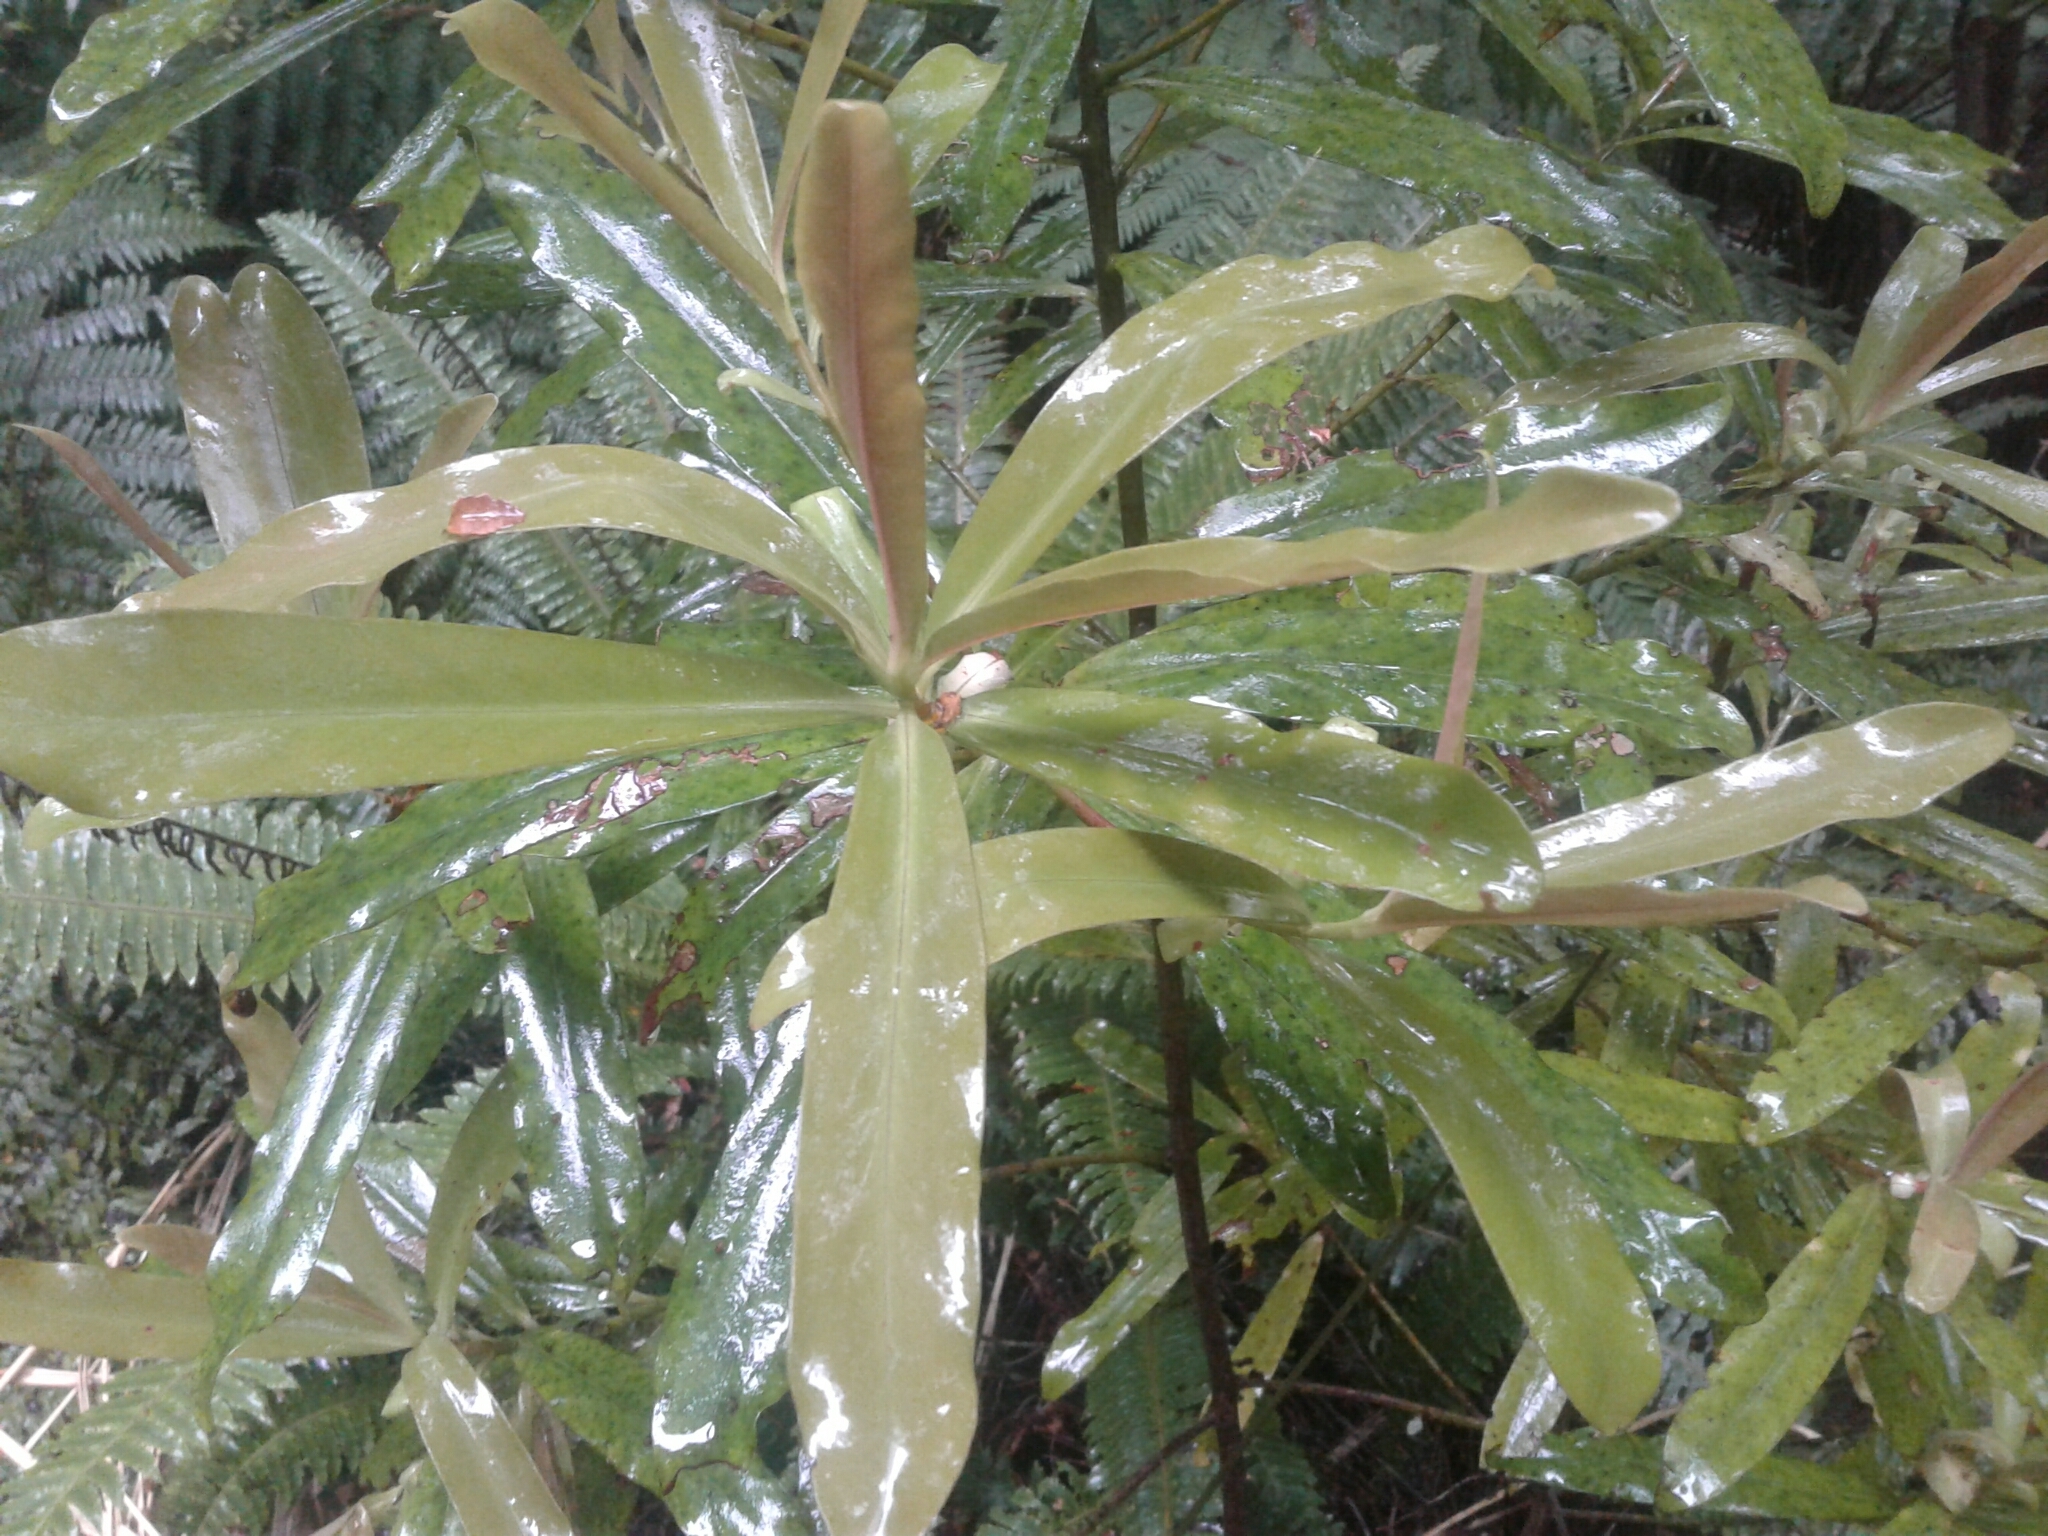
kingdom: Plantae
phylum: Tracheophyta
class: Magnoliopsida
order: Ericales
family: Primulaceae
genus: Myrsine
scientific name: Myrsine salicina
